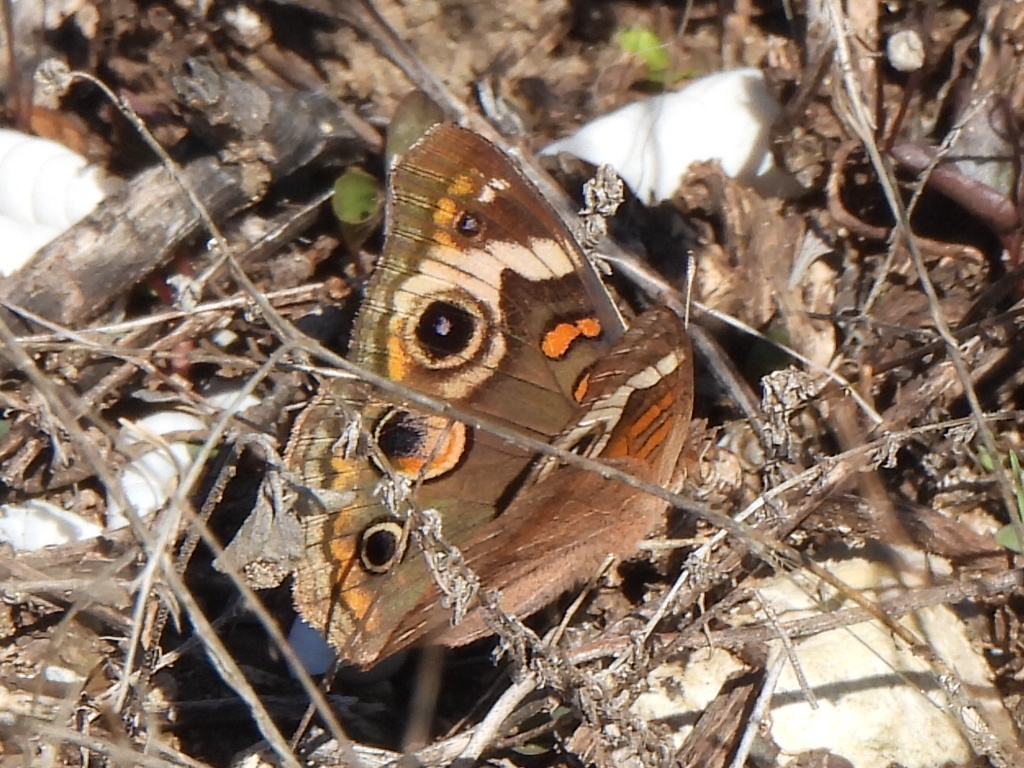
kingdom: Animalia
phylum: Arthropoda
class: Insecta
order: Lepidoptera
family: Nymphalidae
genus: Junonia
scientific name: Junonia coenia
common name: Common buckeye
